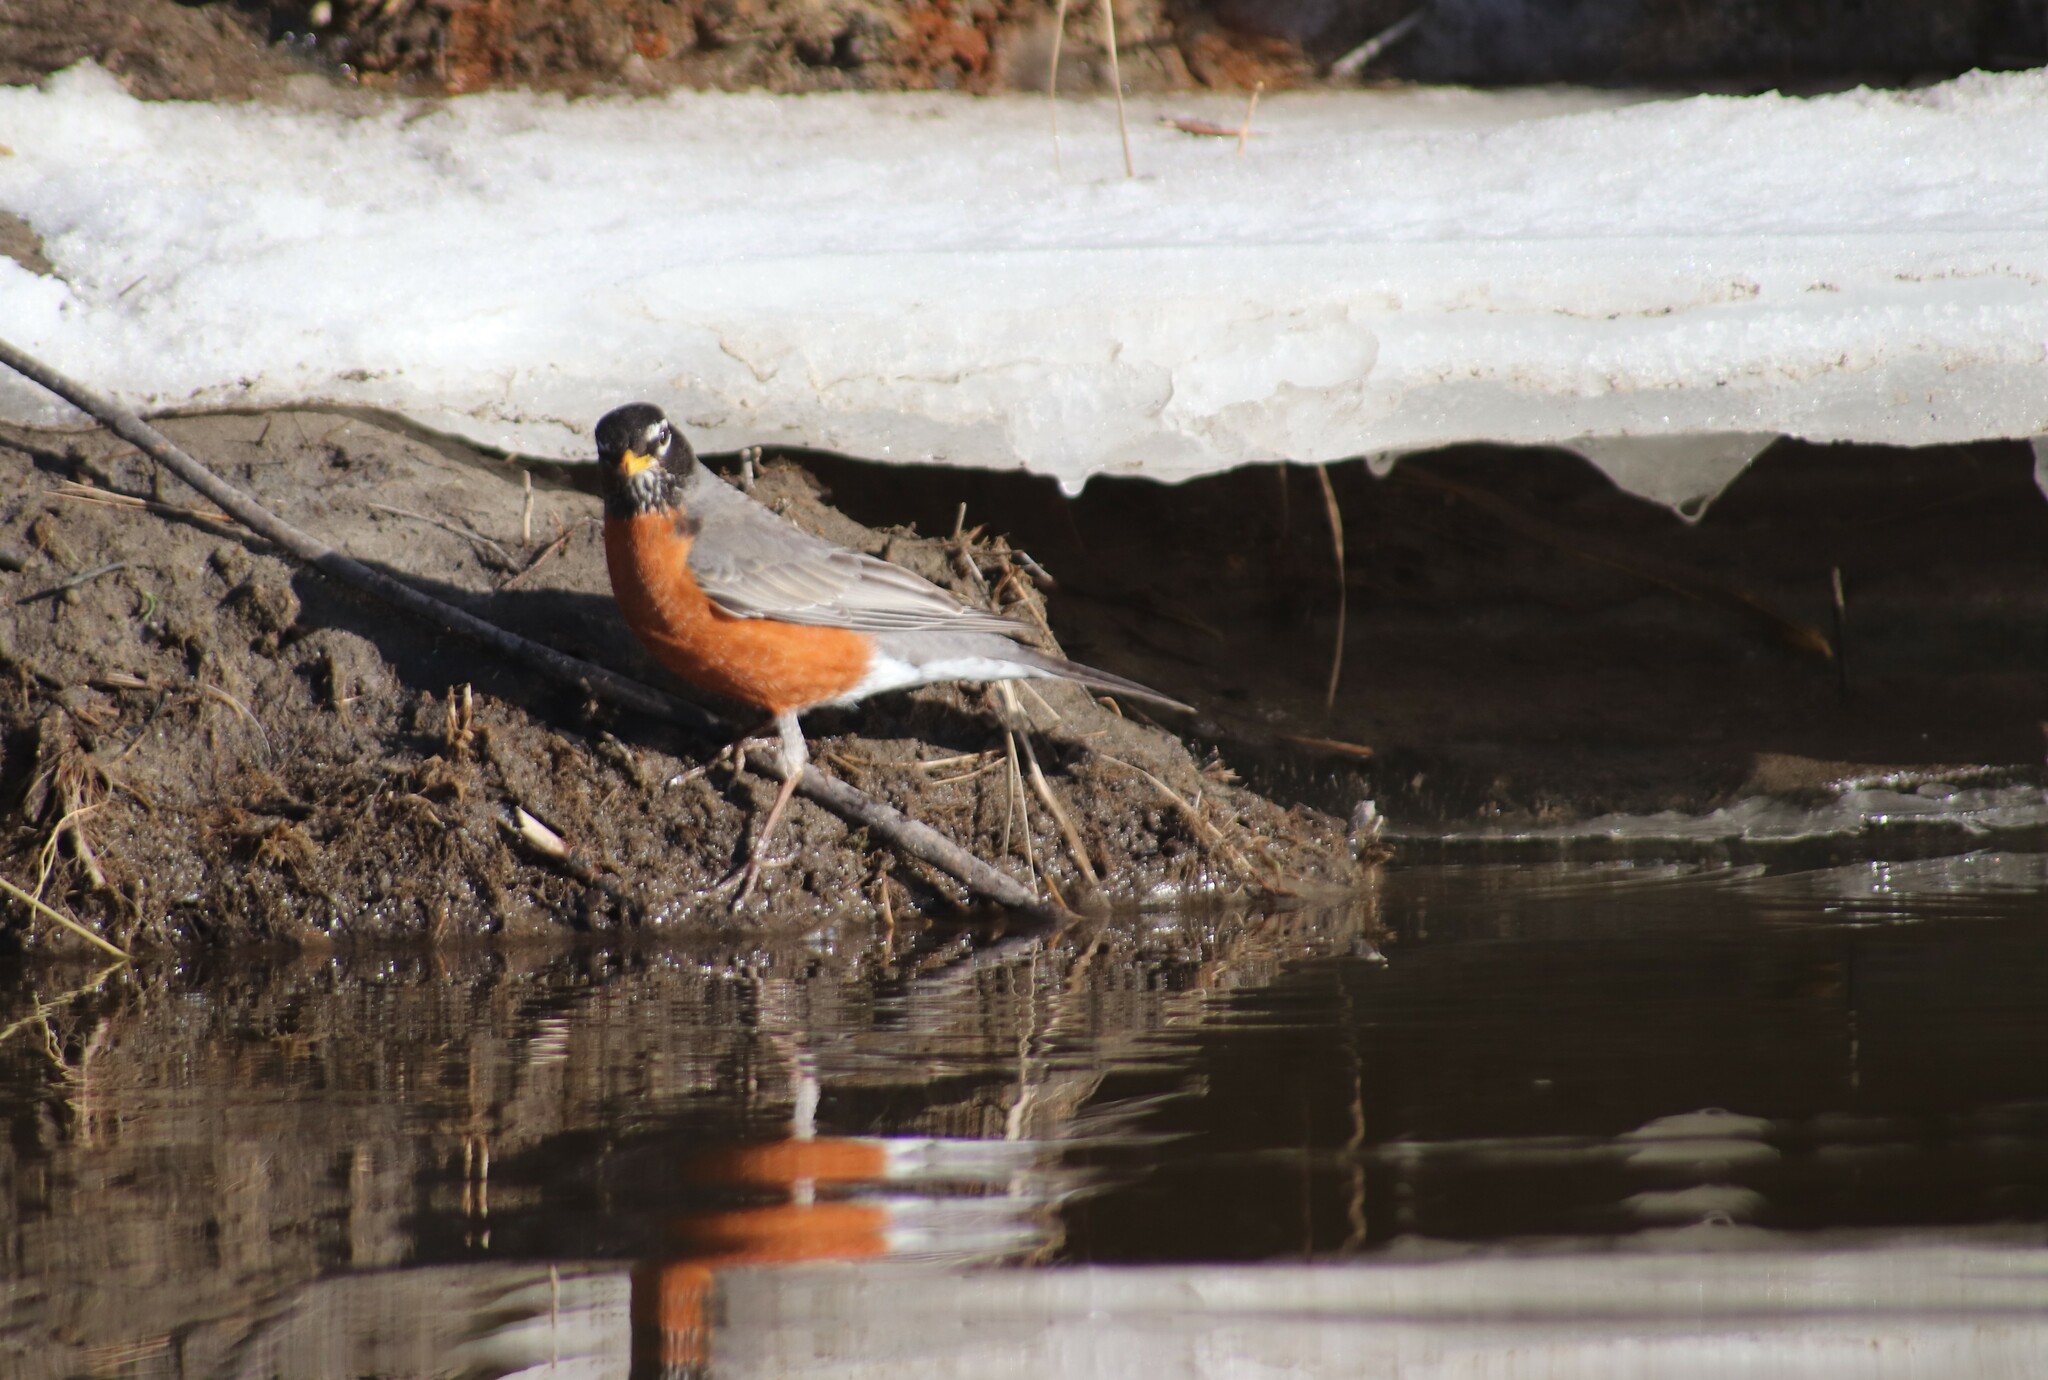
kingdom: Animalia
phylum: Chordata
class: Aves
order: Passeriformes
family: Turdidae
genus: Turdus
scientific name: Turdus migratorius
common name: American robin
